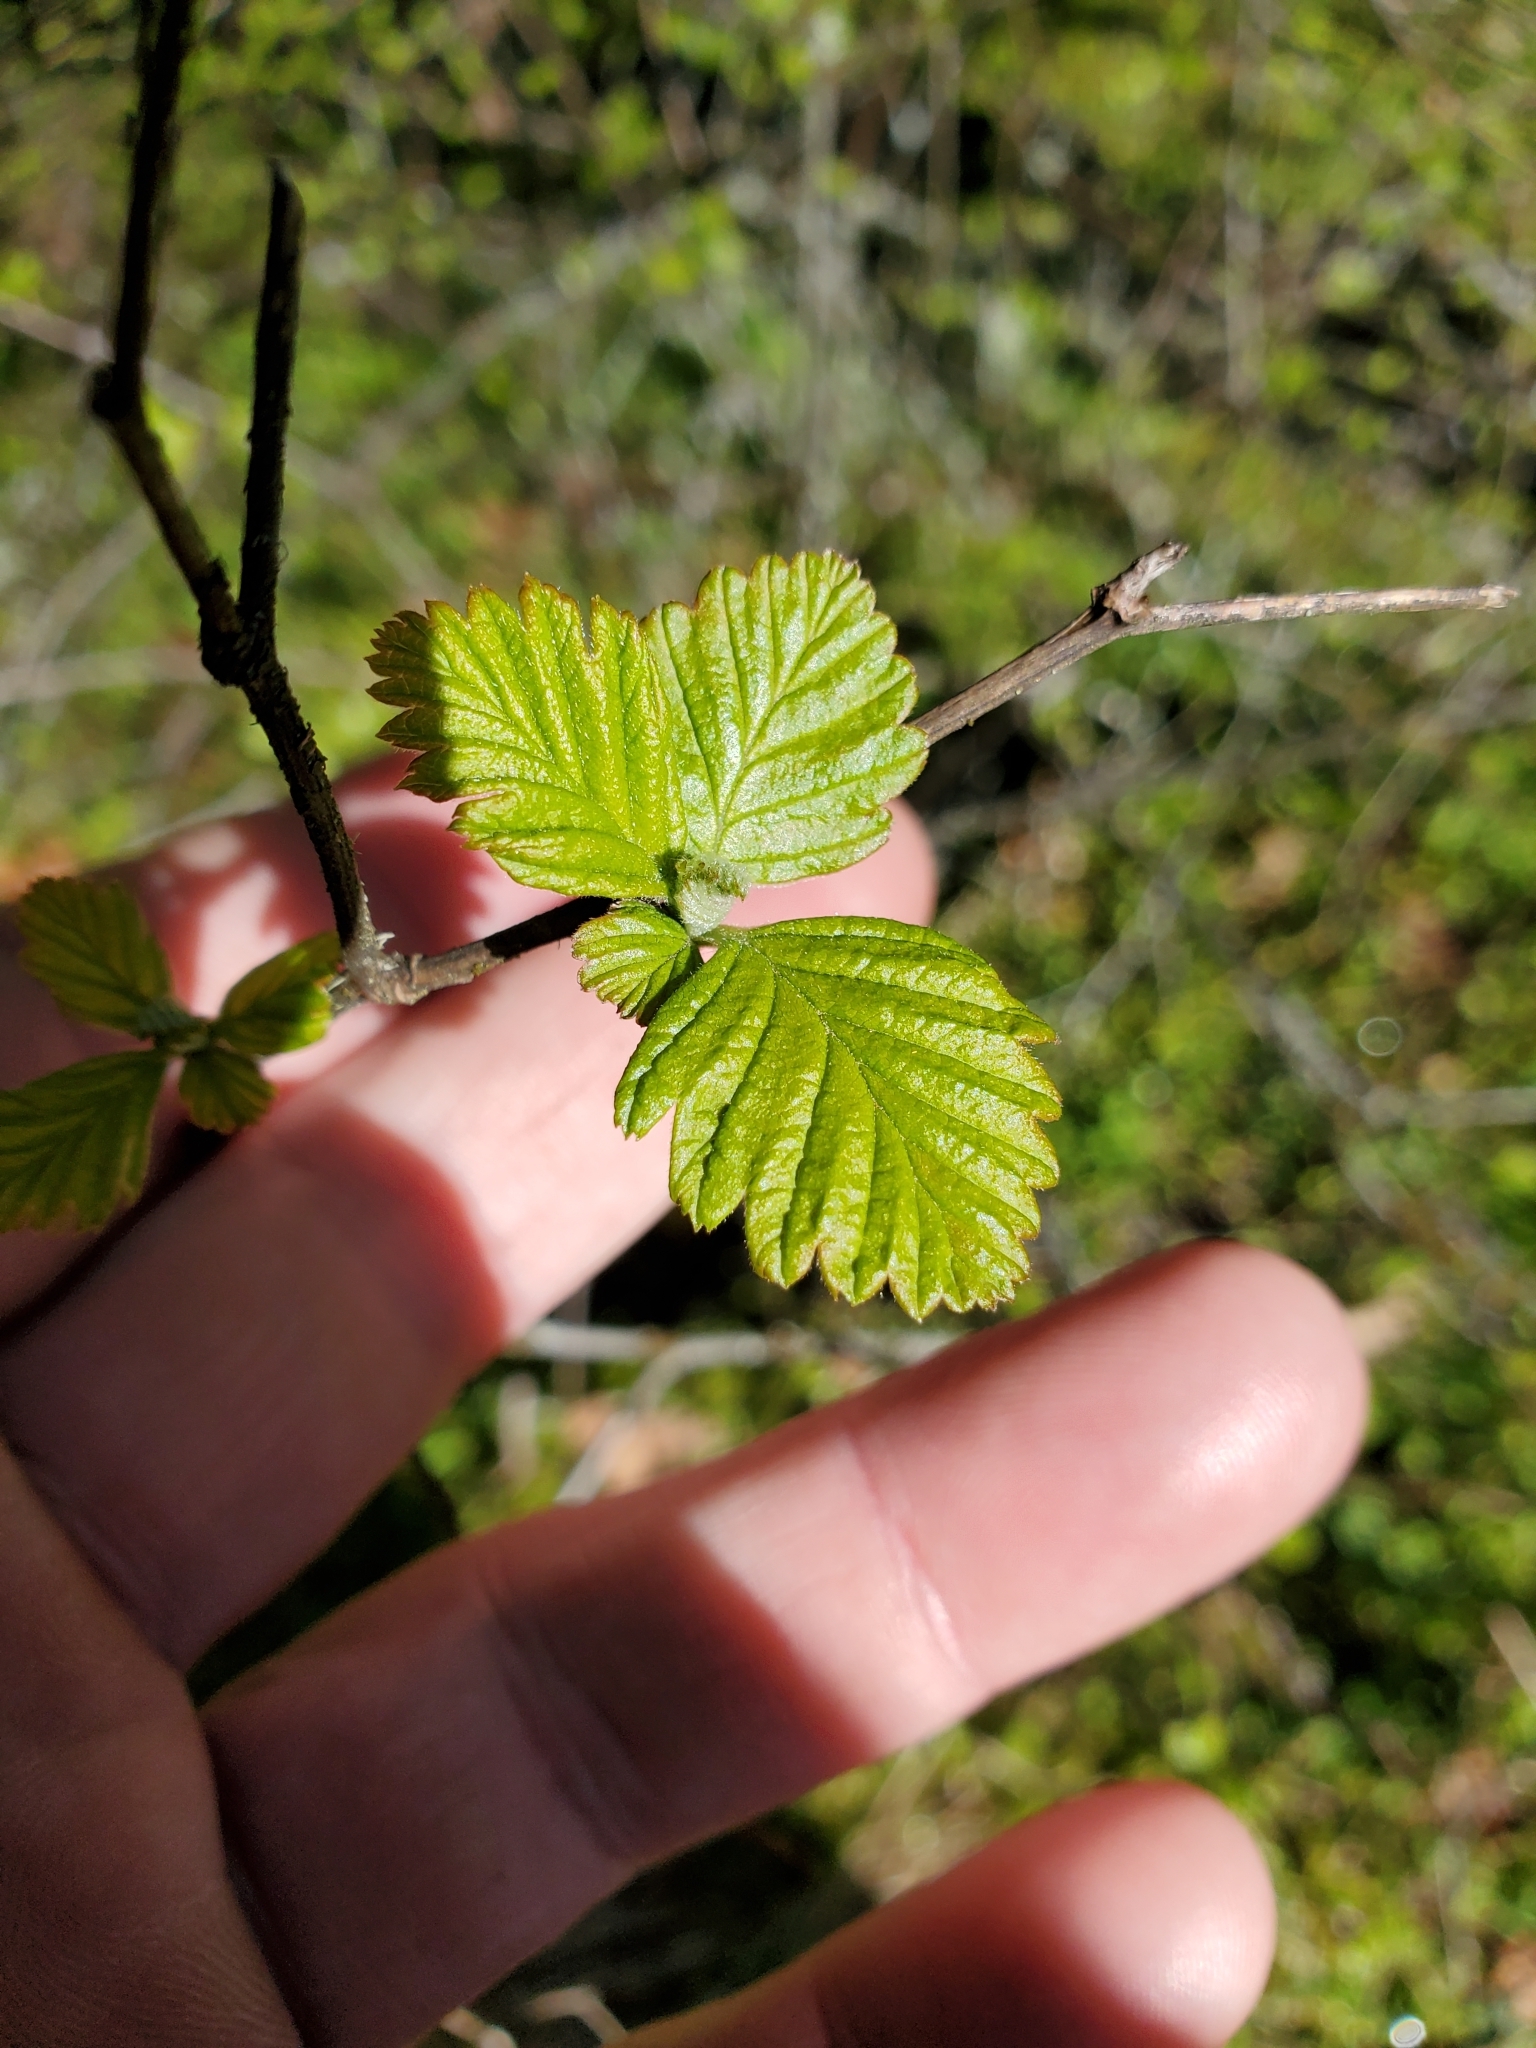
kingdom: Plantae
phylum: Tracheophyta
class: Magnoliopsida
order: Rosales
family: Rosaceae
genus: Holodiscus
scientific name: Holodiscus discolor
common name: Oceanspray
